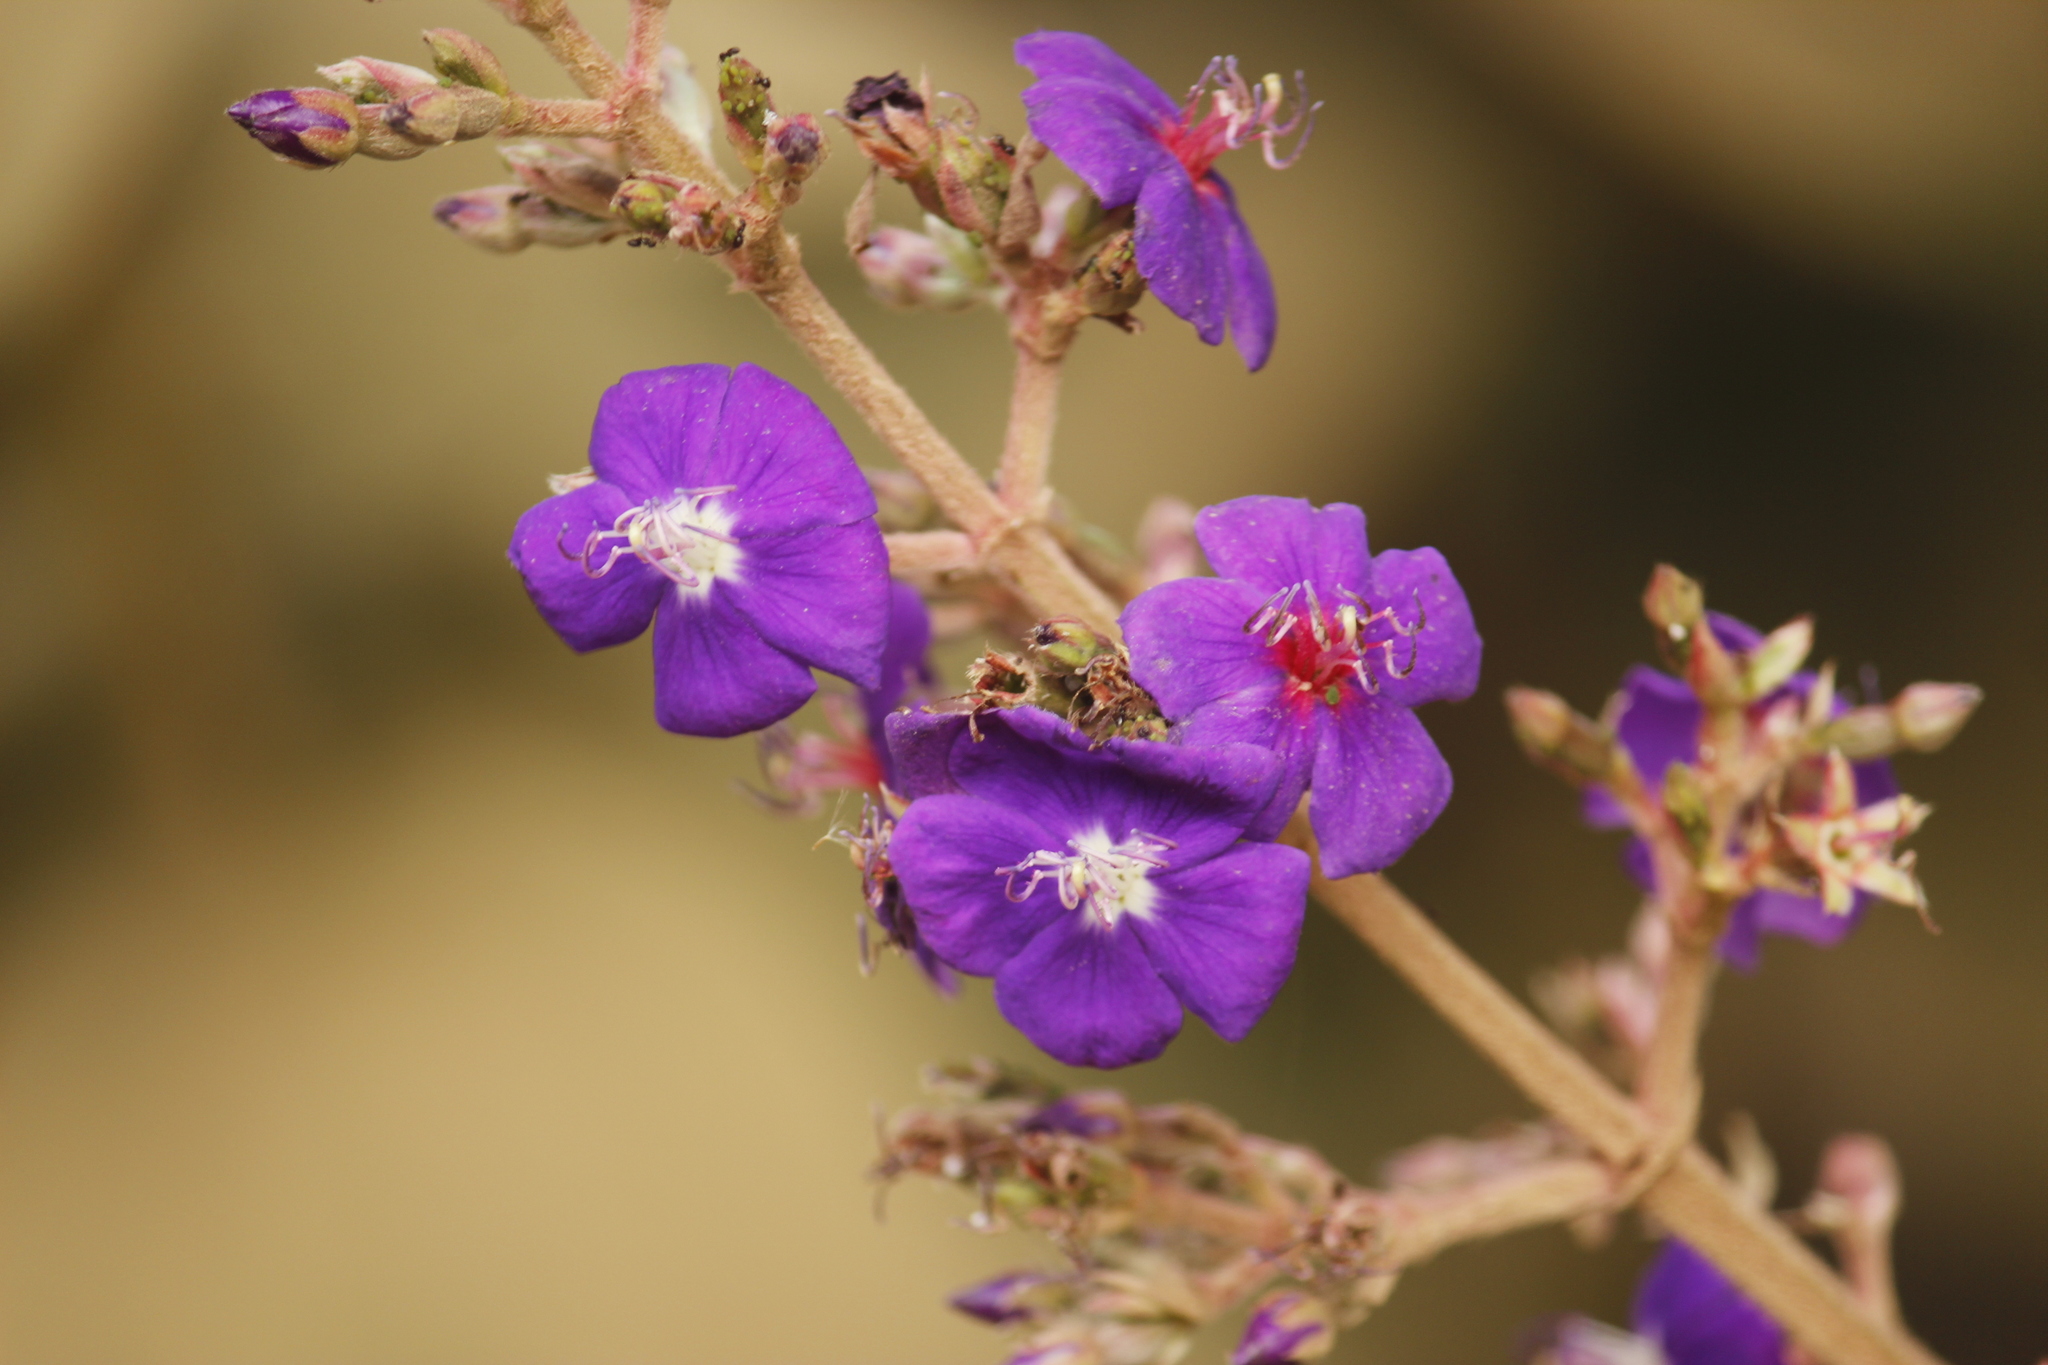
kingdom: Plantae
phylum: Tracheophyta
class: Magnoliopsida
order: Myrtales
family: Melastomataceae
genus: Pleroma
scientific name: Pleroma heteromallum
